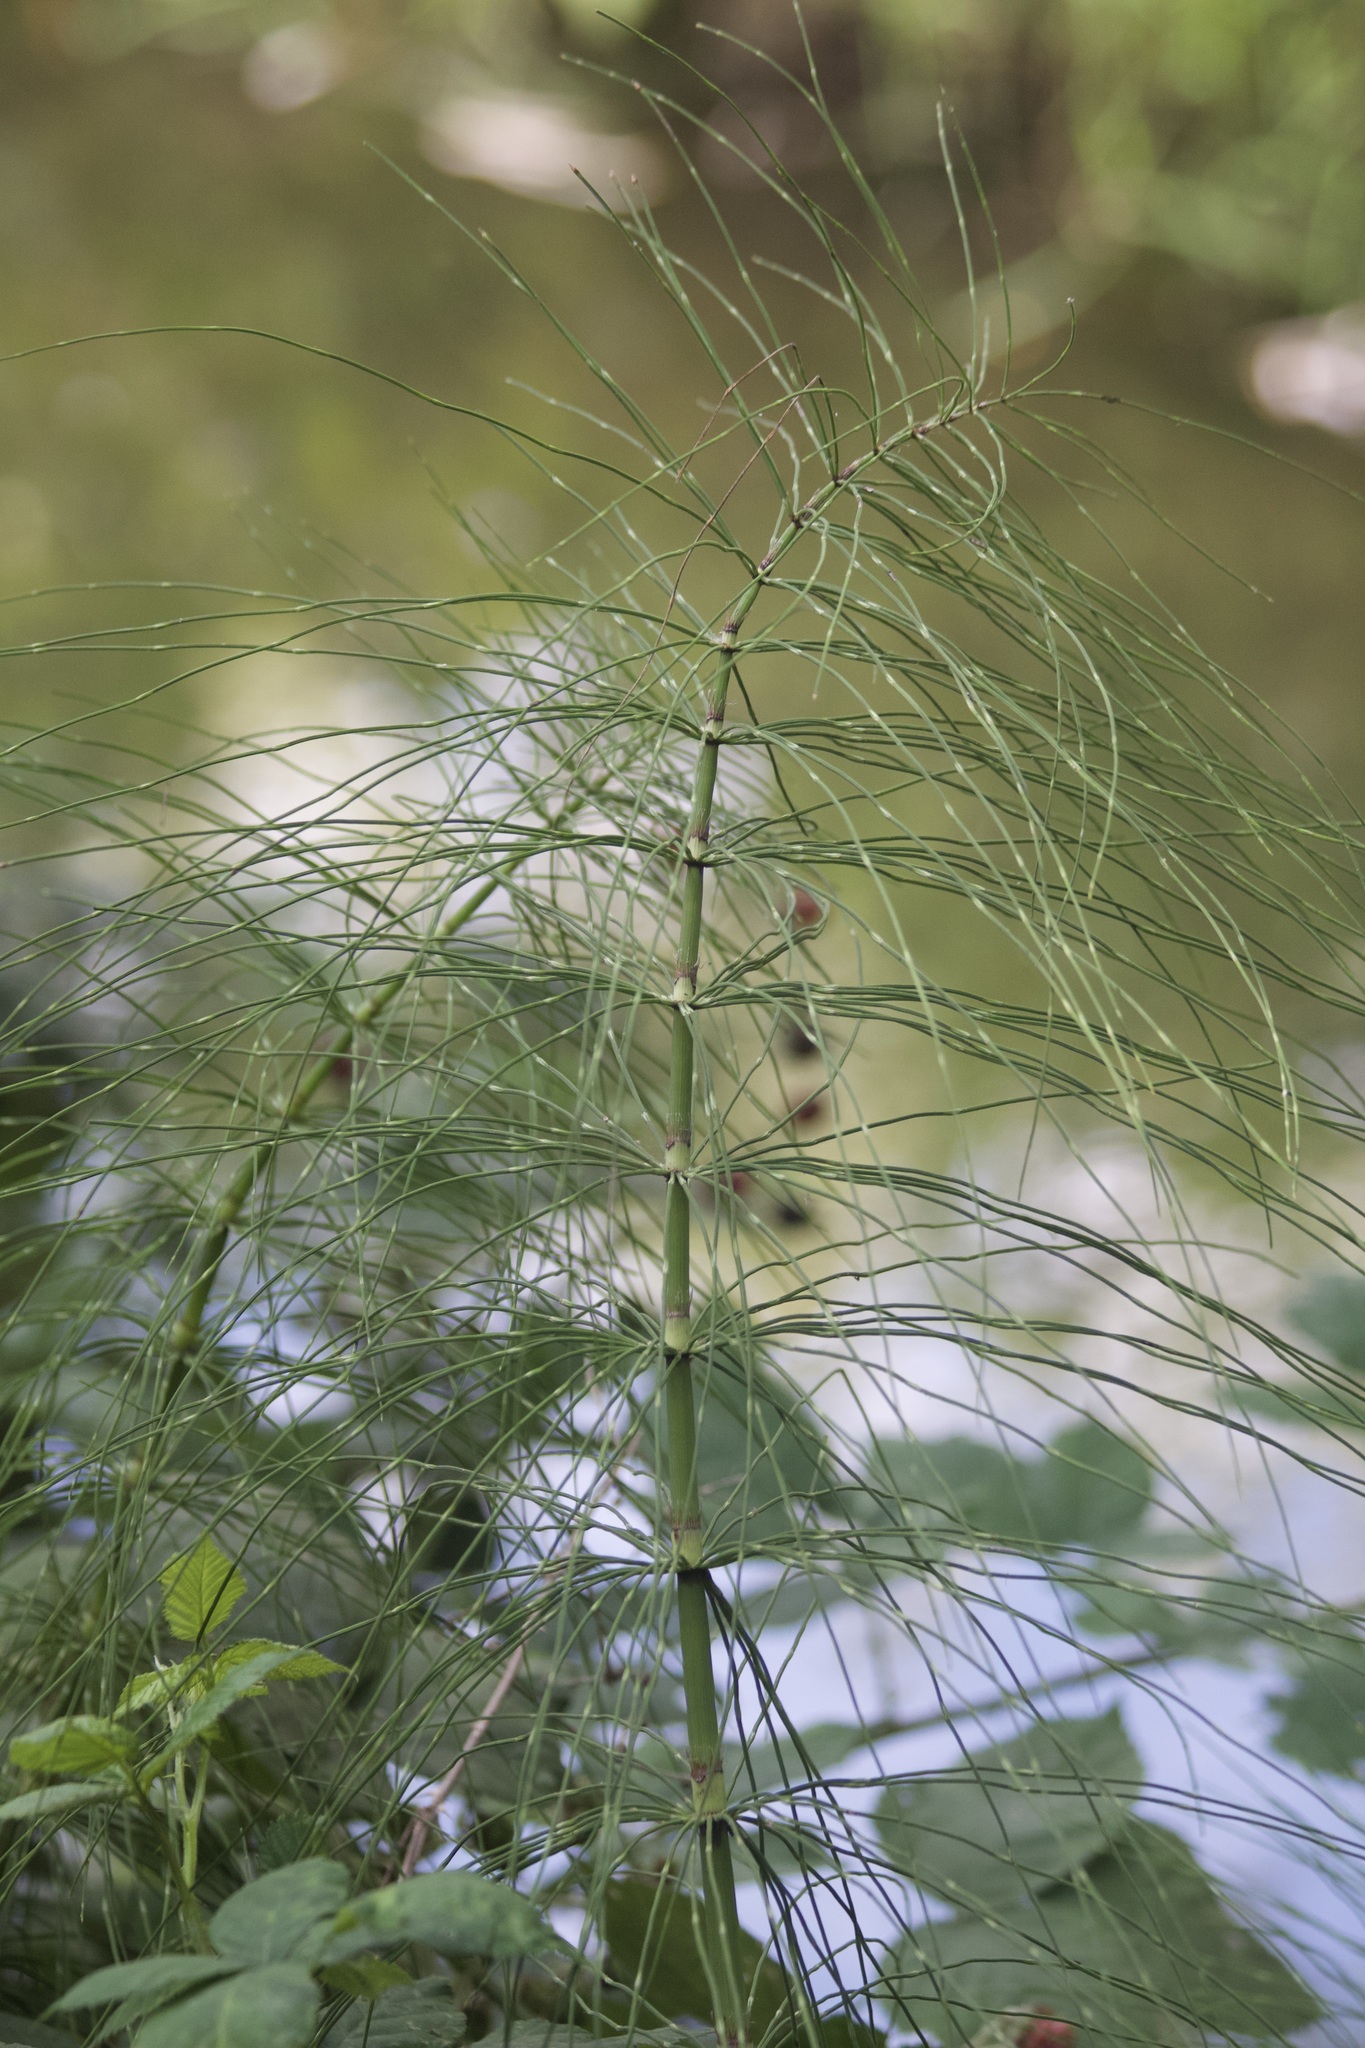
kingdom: Plantae
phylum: Tracheophyta
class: Polypodiopsida
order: Equisetales
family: Equisetaceae
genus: Equisetum
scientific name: Equisetum braunii
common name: Braun's horsetail
